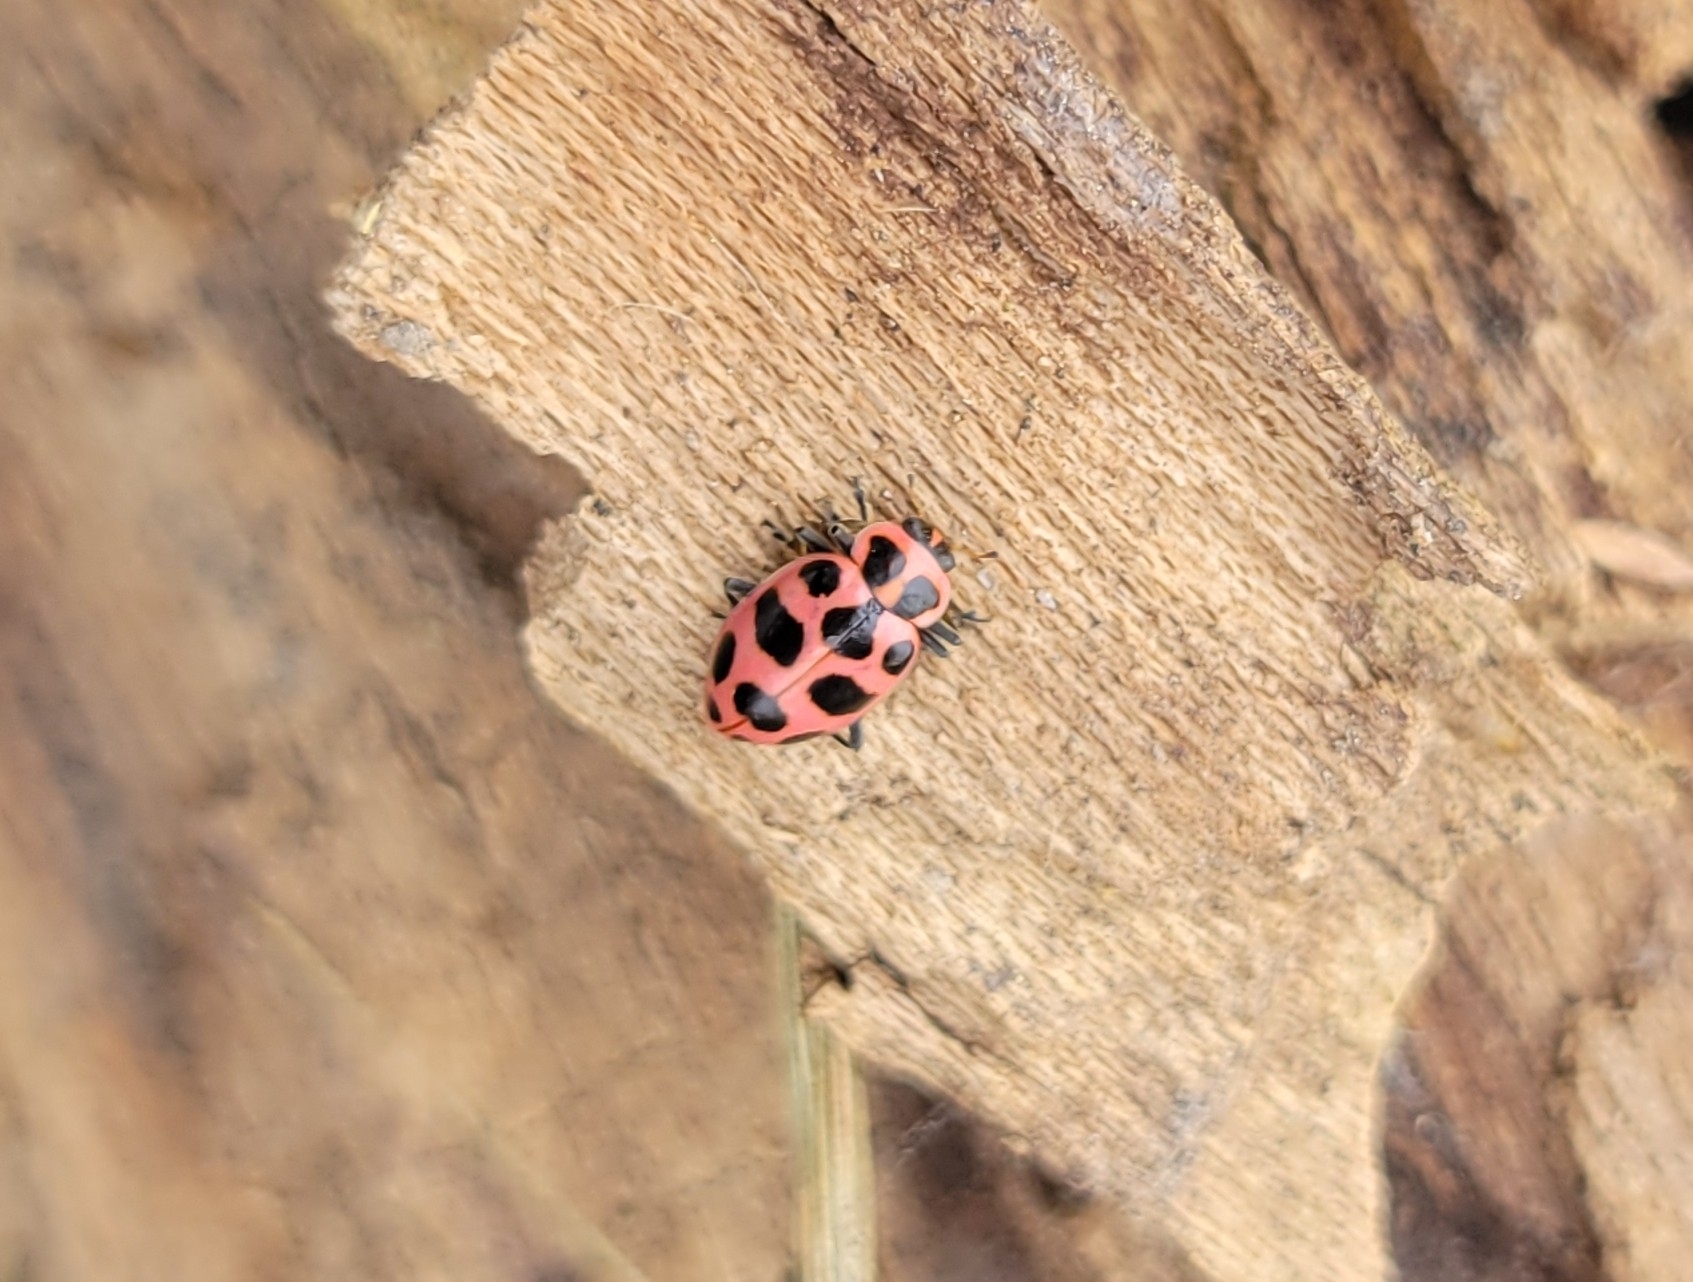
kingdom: Animalia
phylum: Arthropoda
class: Insecta
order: Coleoptera
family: Coccinellidae
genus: Coleomegilla
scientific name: Coleomegilla maculata
